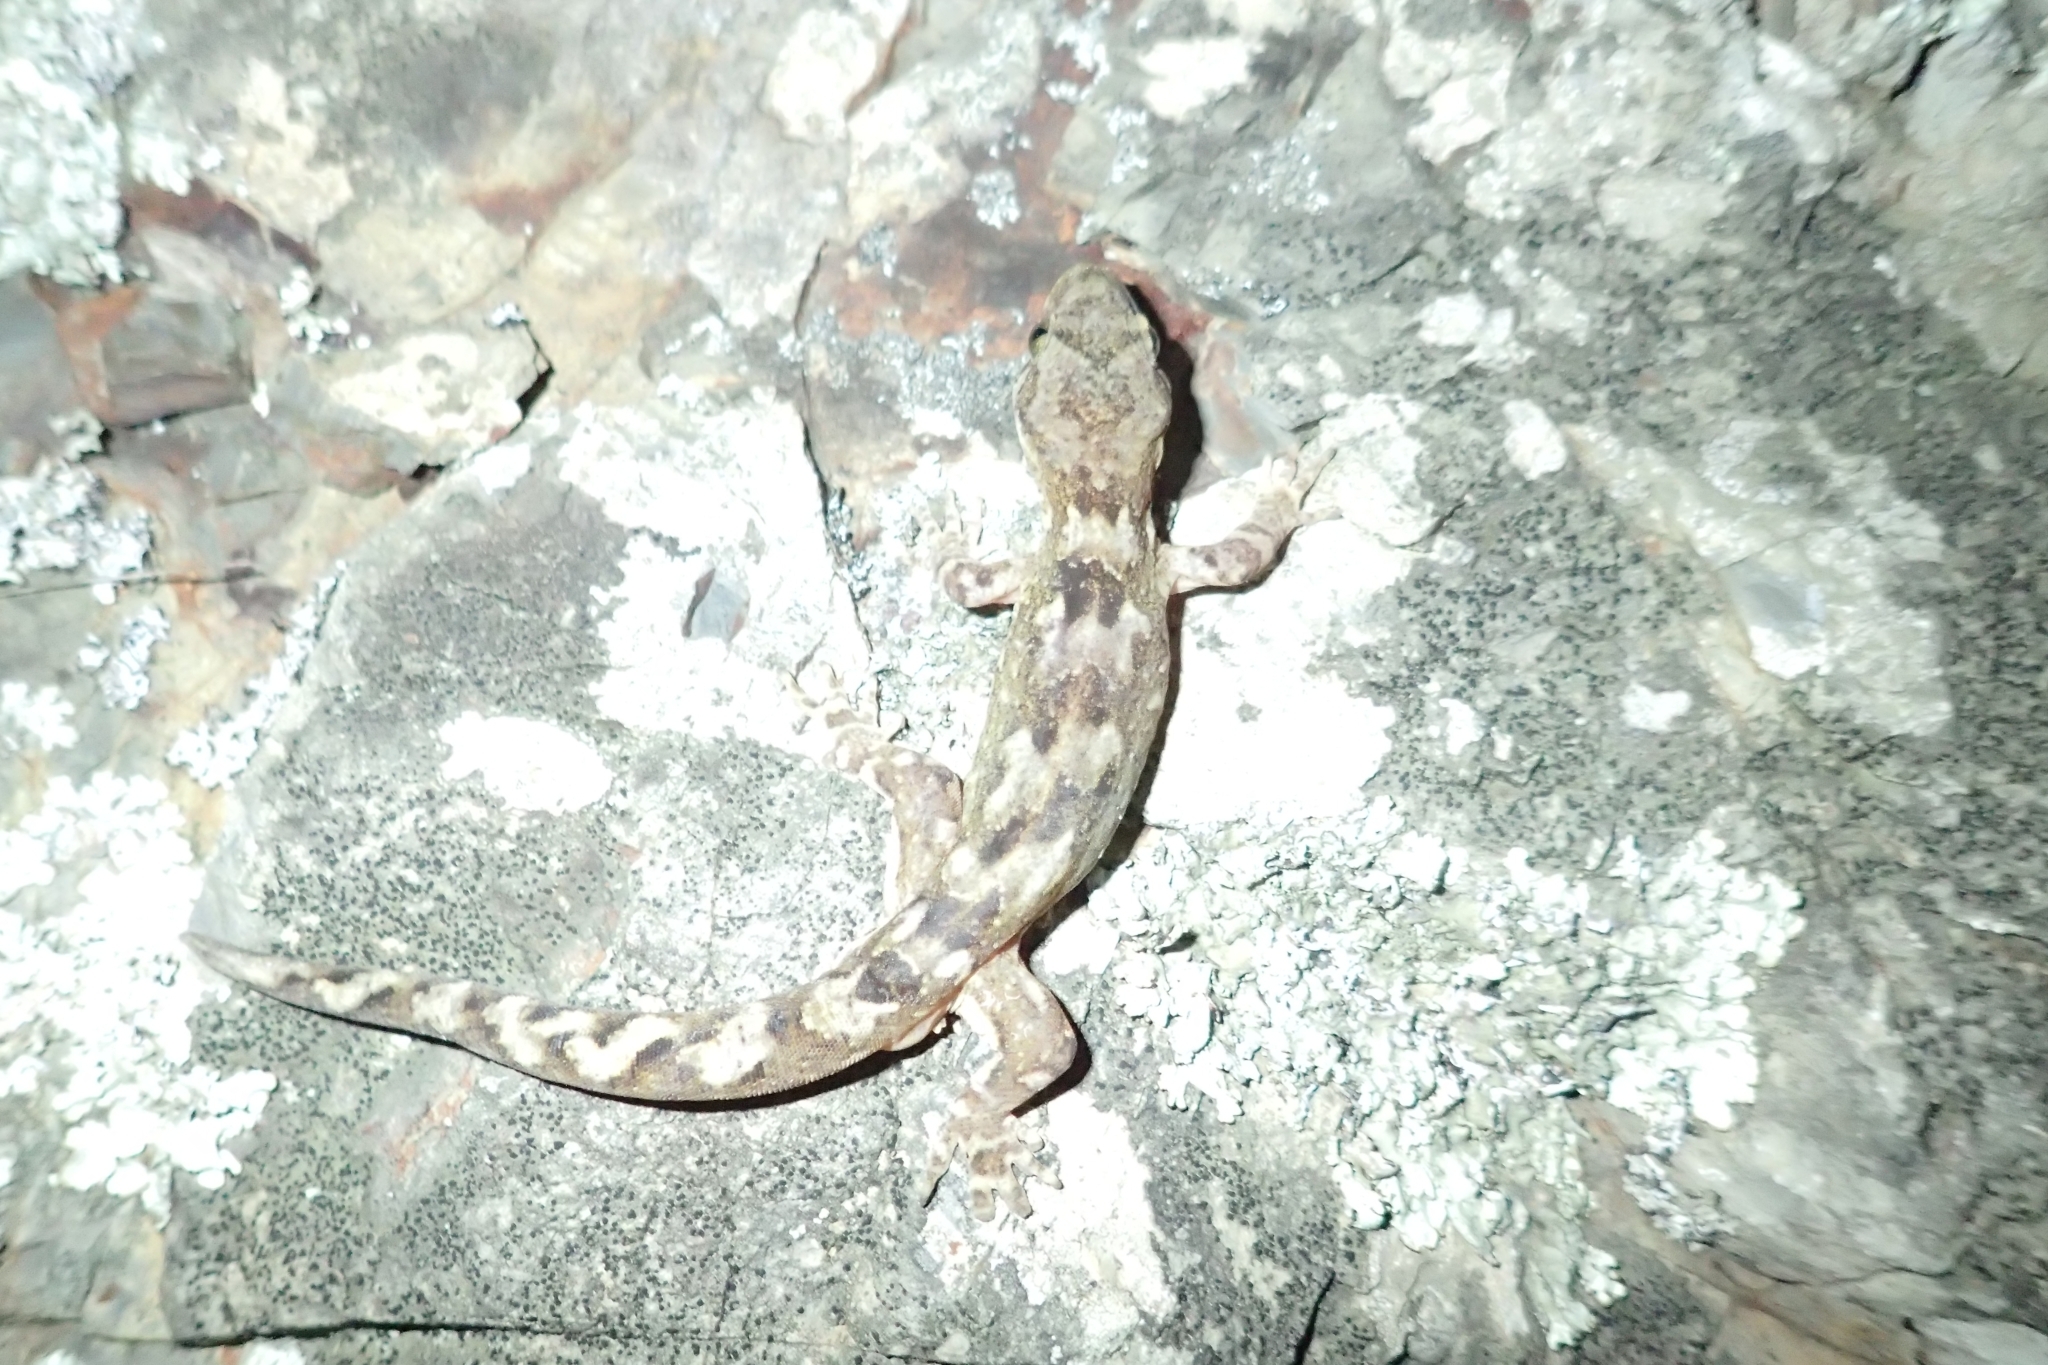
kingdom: Animalia
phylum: Chordata
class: Squamata
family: Diplodactylidae
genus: Dactylocnemis
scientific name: Dactylocnemis pacificus
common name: Pacific gecko
